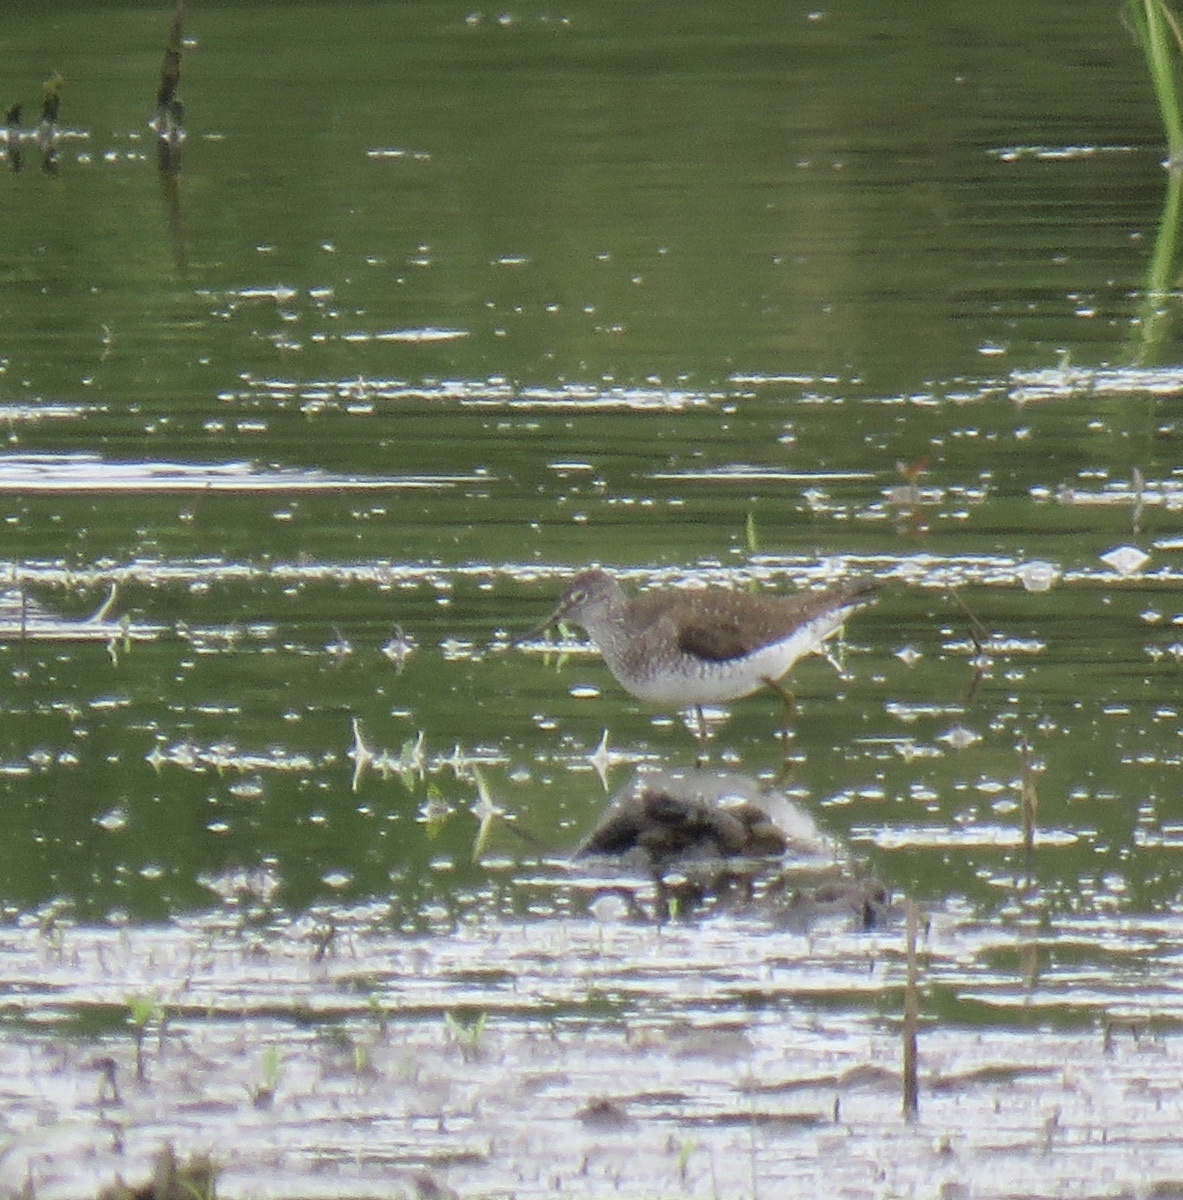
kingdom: Animalia
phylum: Chordata
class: Aves
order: Charadriiformes
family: Scolopacidae
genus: Tringa
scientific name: Tringa solitaria
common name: Solitary sandpiper
